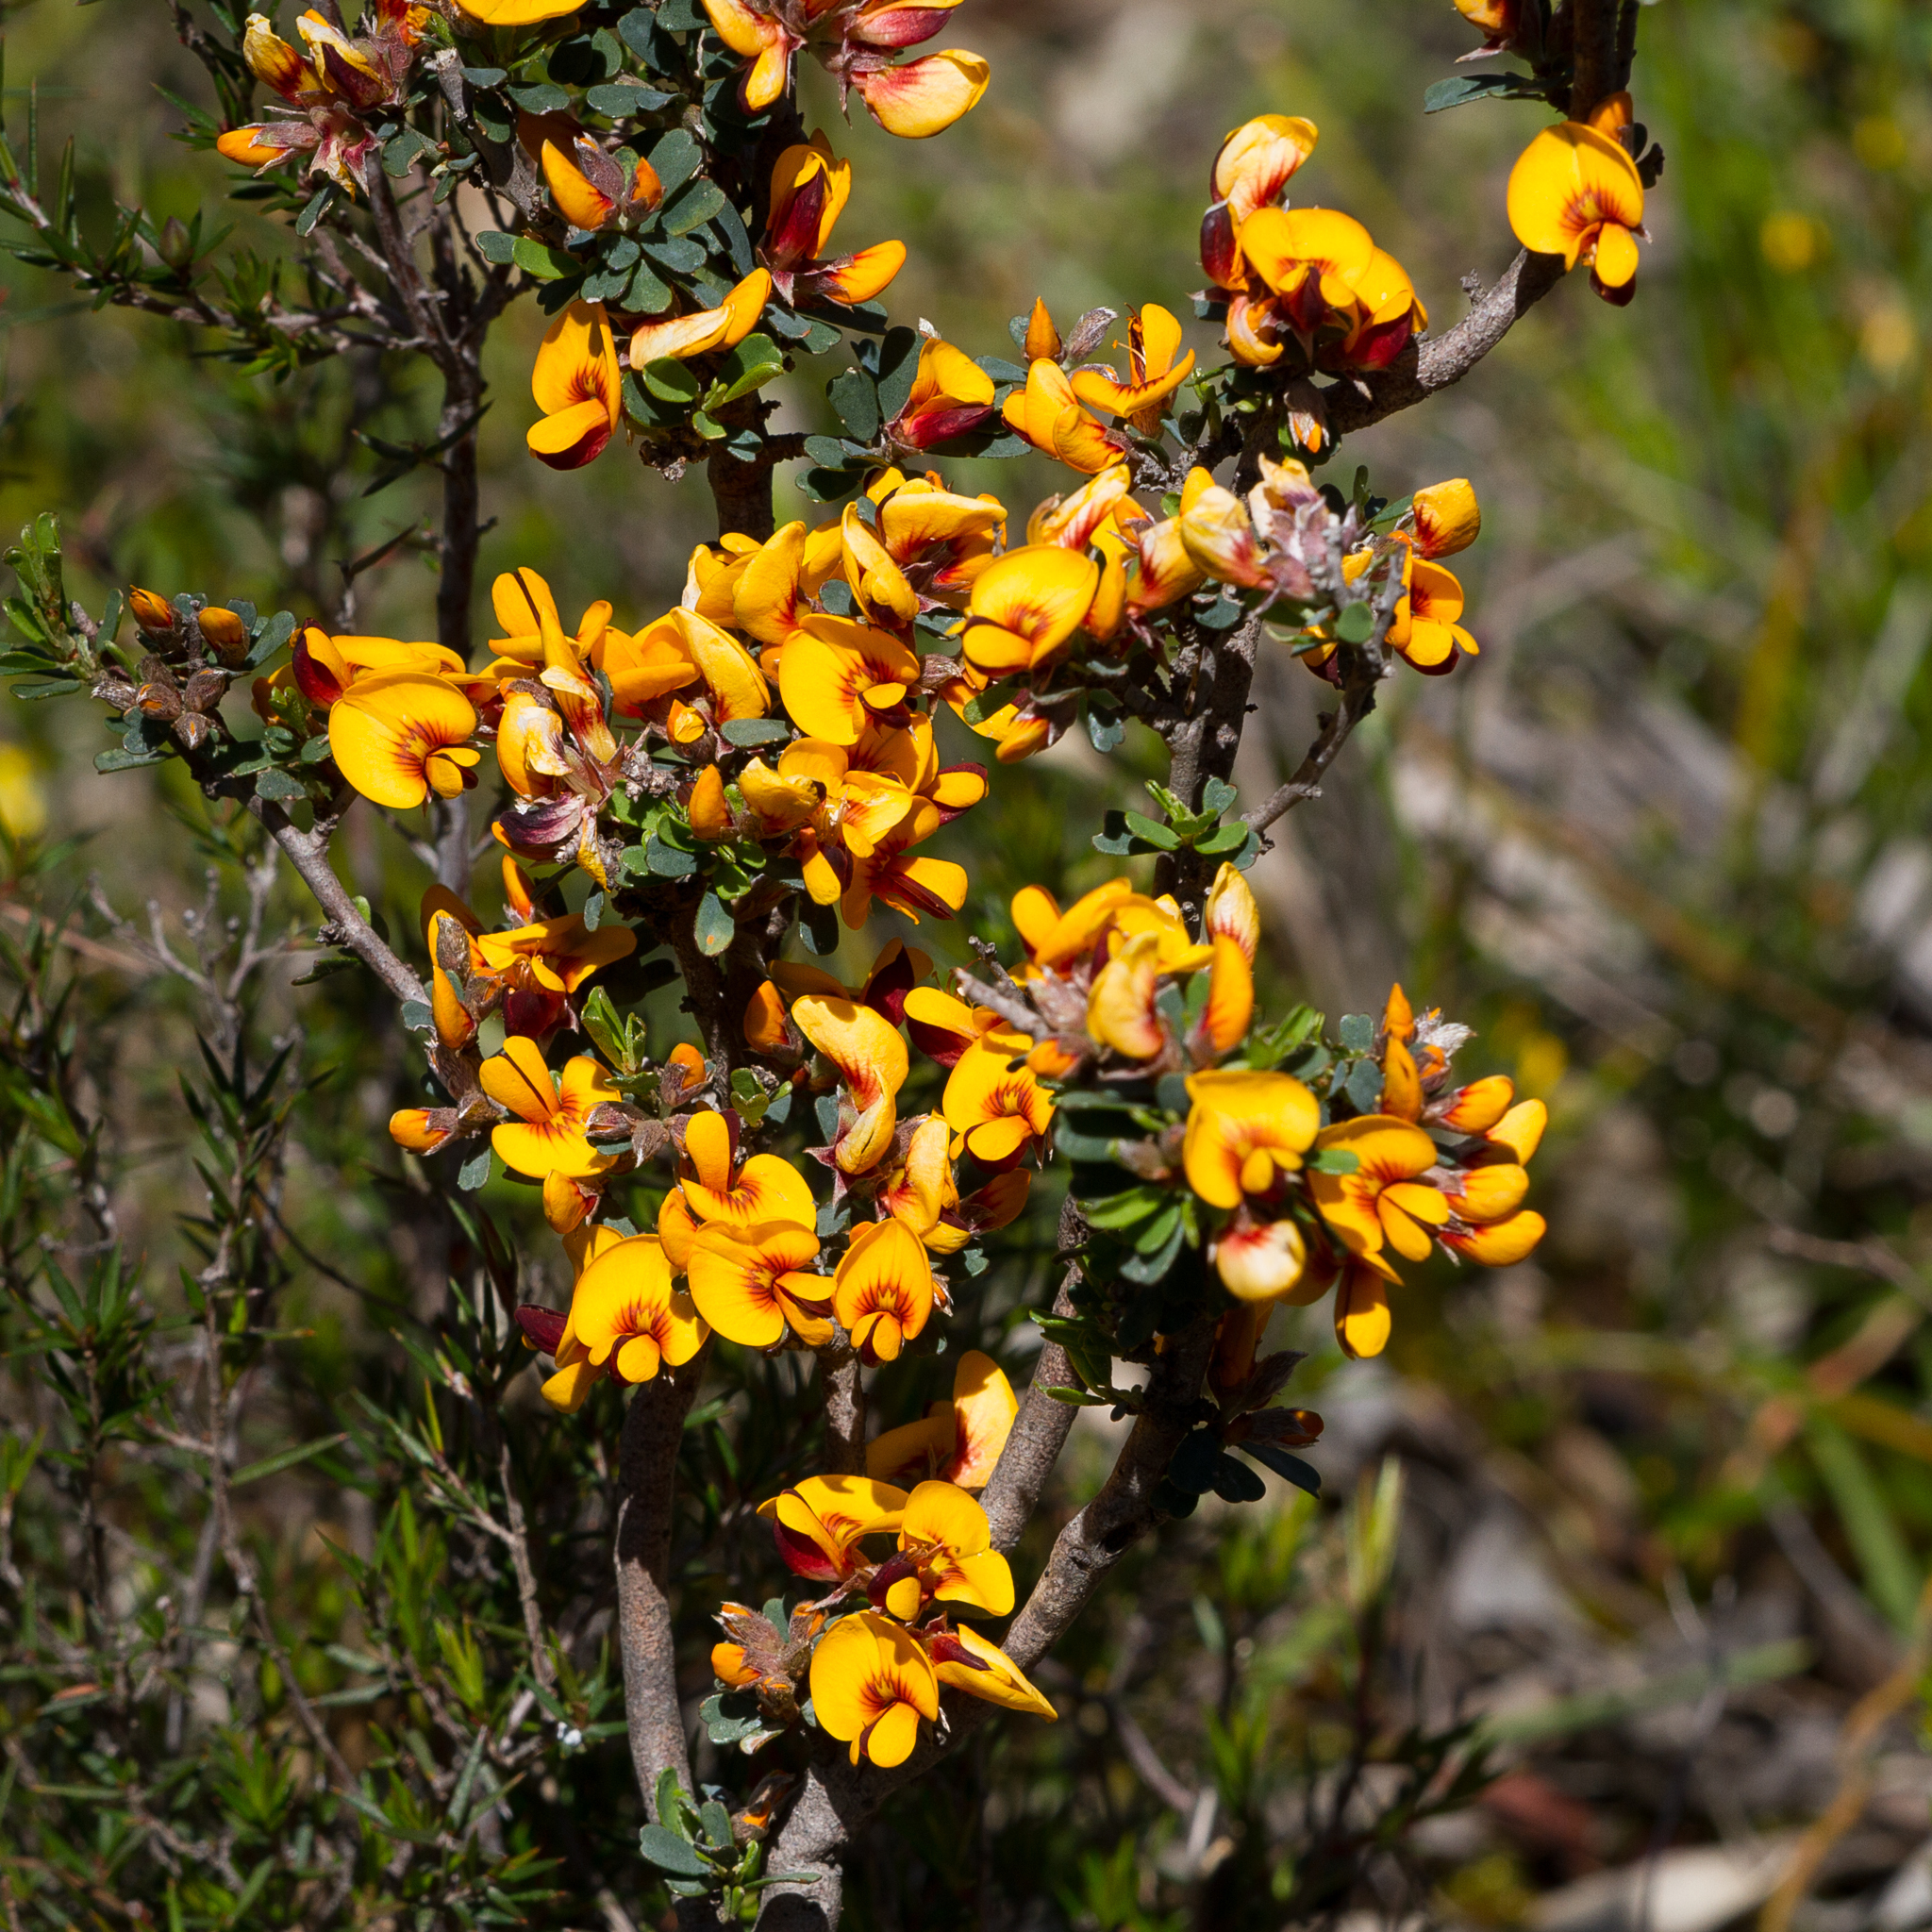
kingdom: Plantae
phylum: Tracheophyta
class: Magnoliopsida
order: Fabales
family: Fabaceae
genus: Pultenaea
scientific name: Pultenaea largiflorens
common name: Twiggy bush-pea
